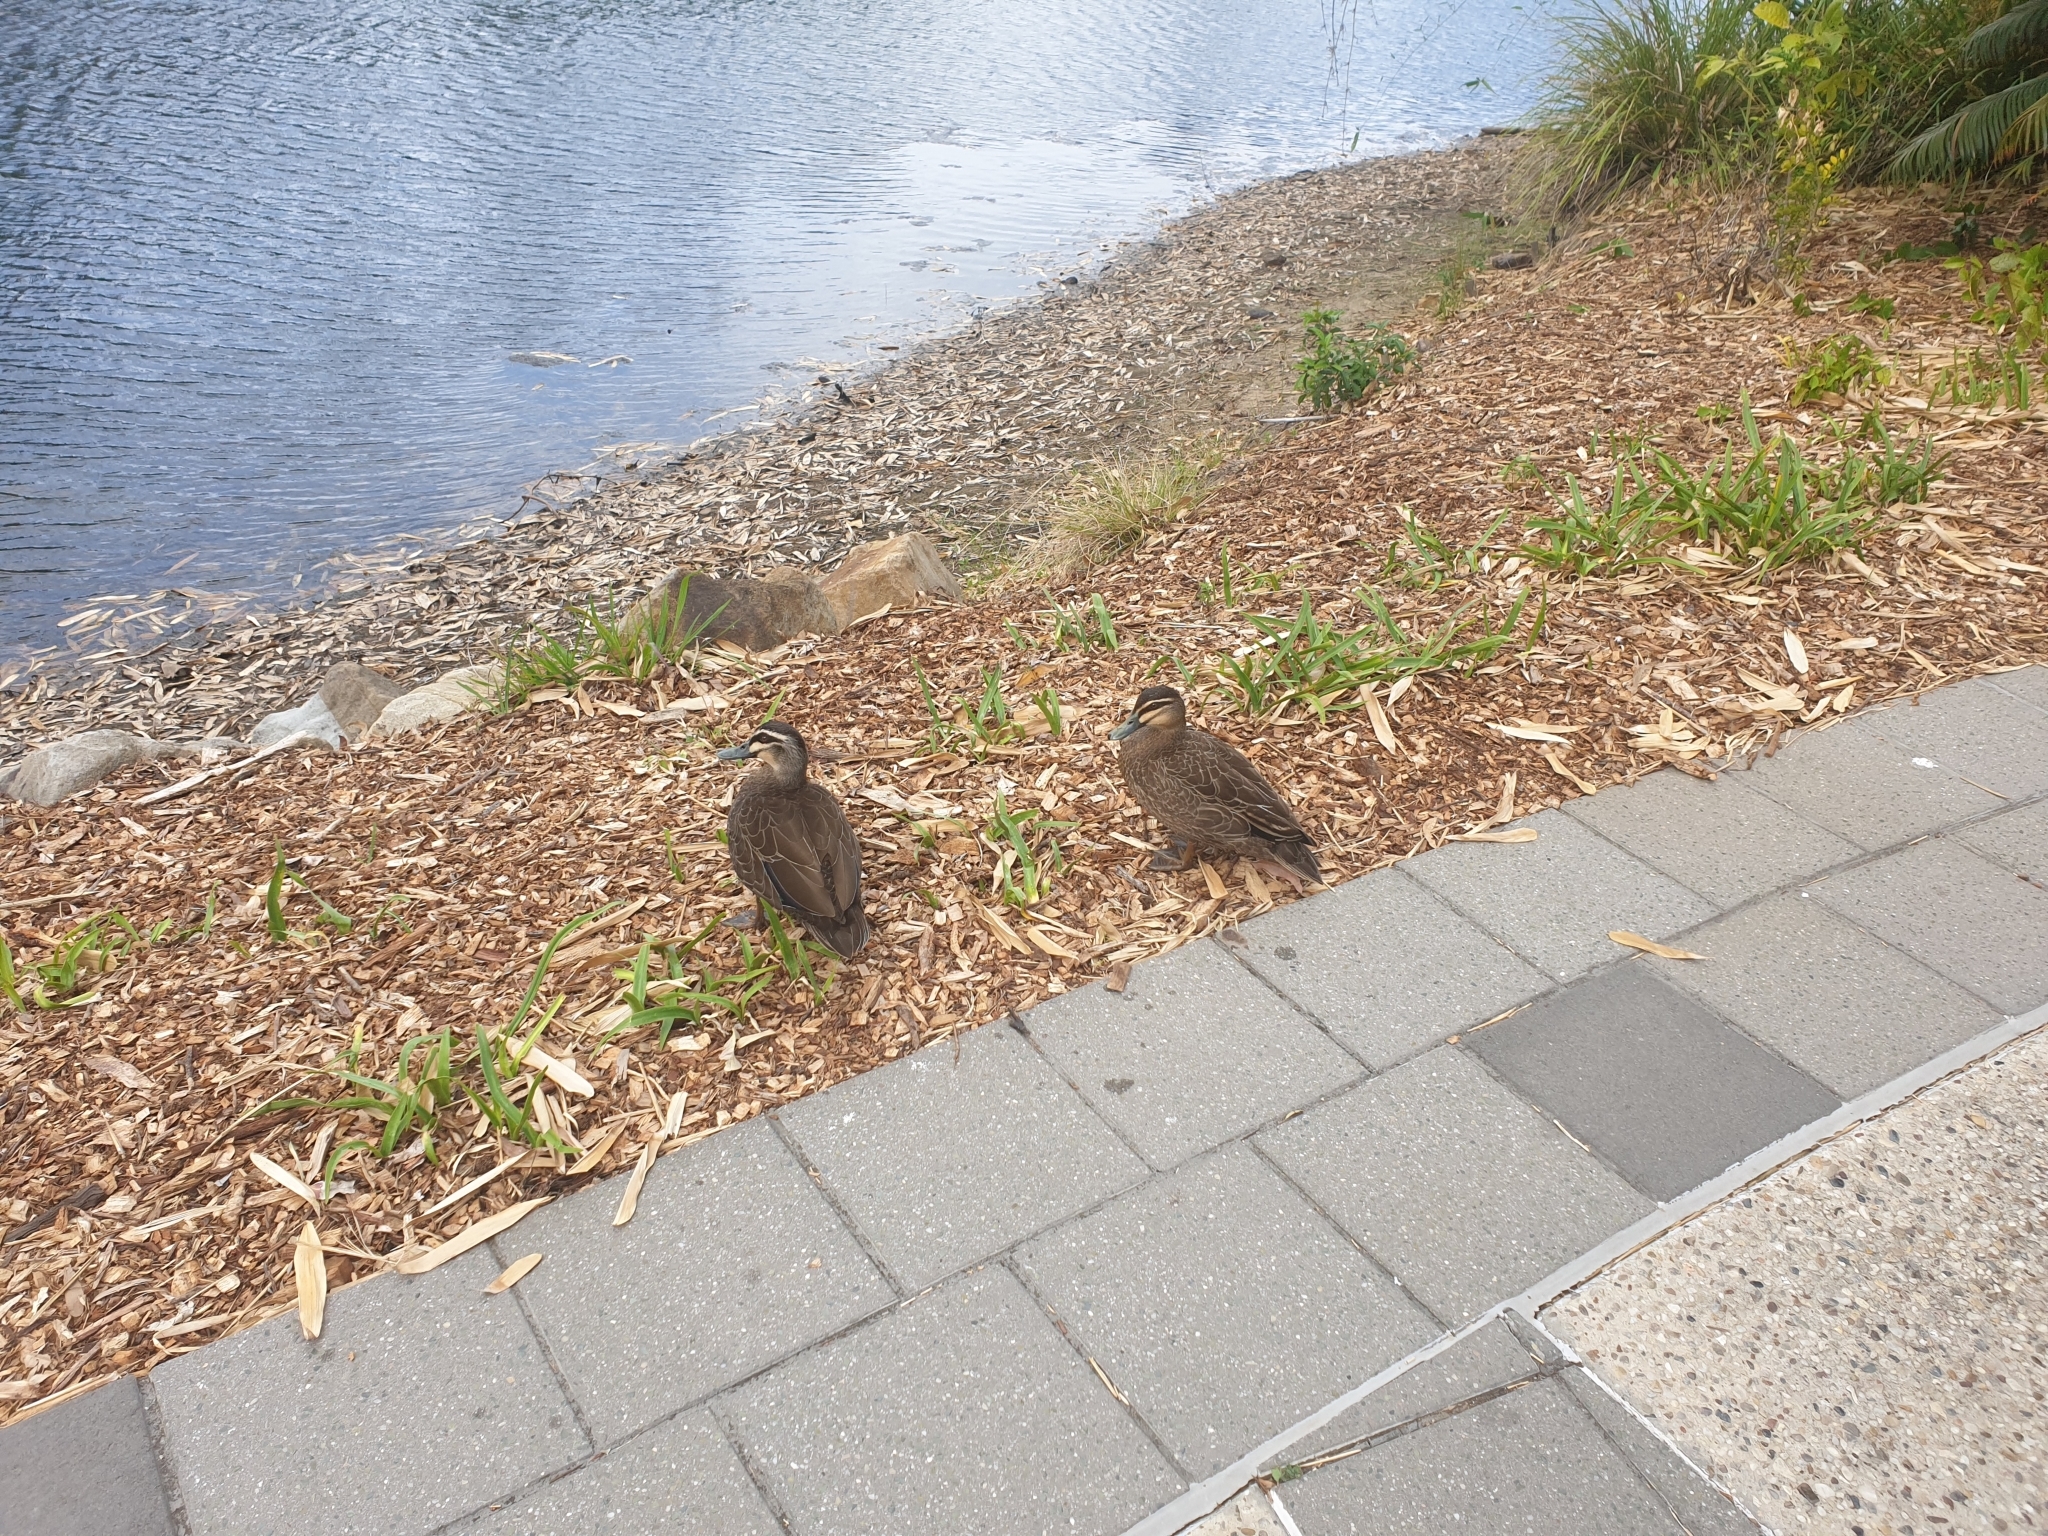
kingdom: Animalia
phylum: Chordata
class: Aves
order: Anseriformes
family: Anatidae
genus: Anas
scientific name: Anas superciliosa
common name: Pacific black duck
